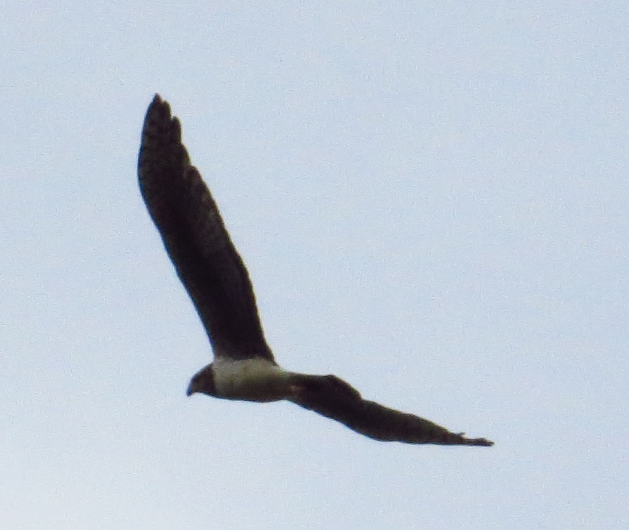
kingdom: Animalia
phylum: Chordata
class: Aves
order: Accipitriformes
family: Accipitridae
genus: Circus
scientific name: Circus buffoni
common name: Long-winged harrier
